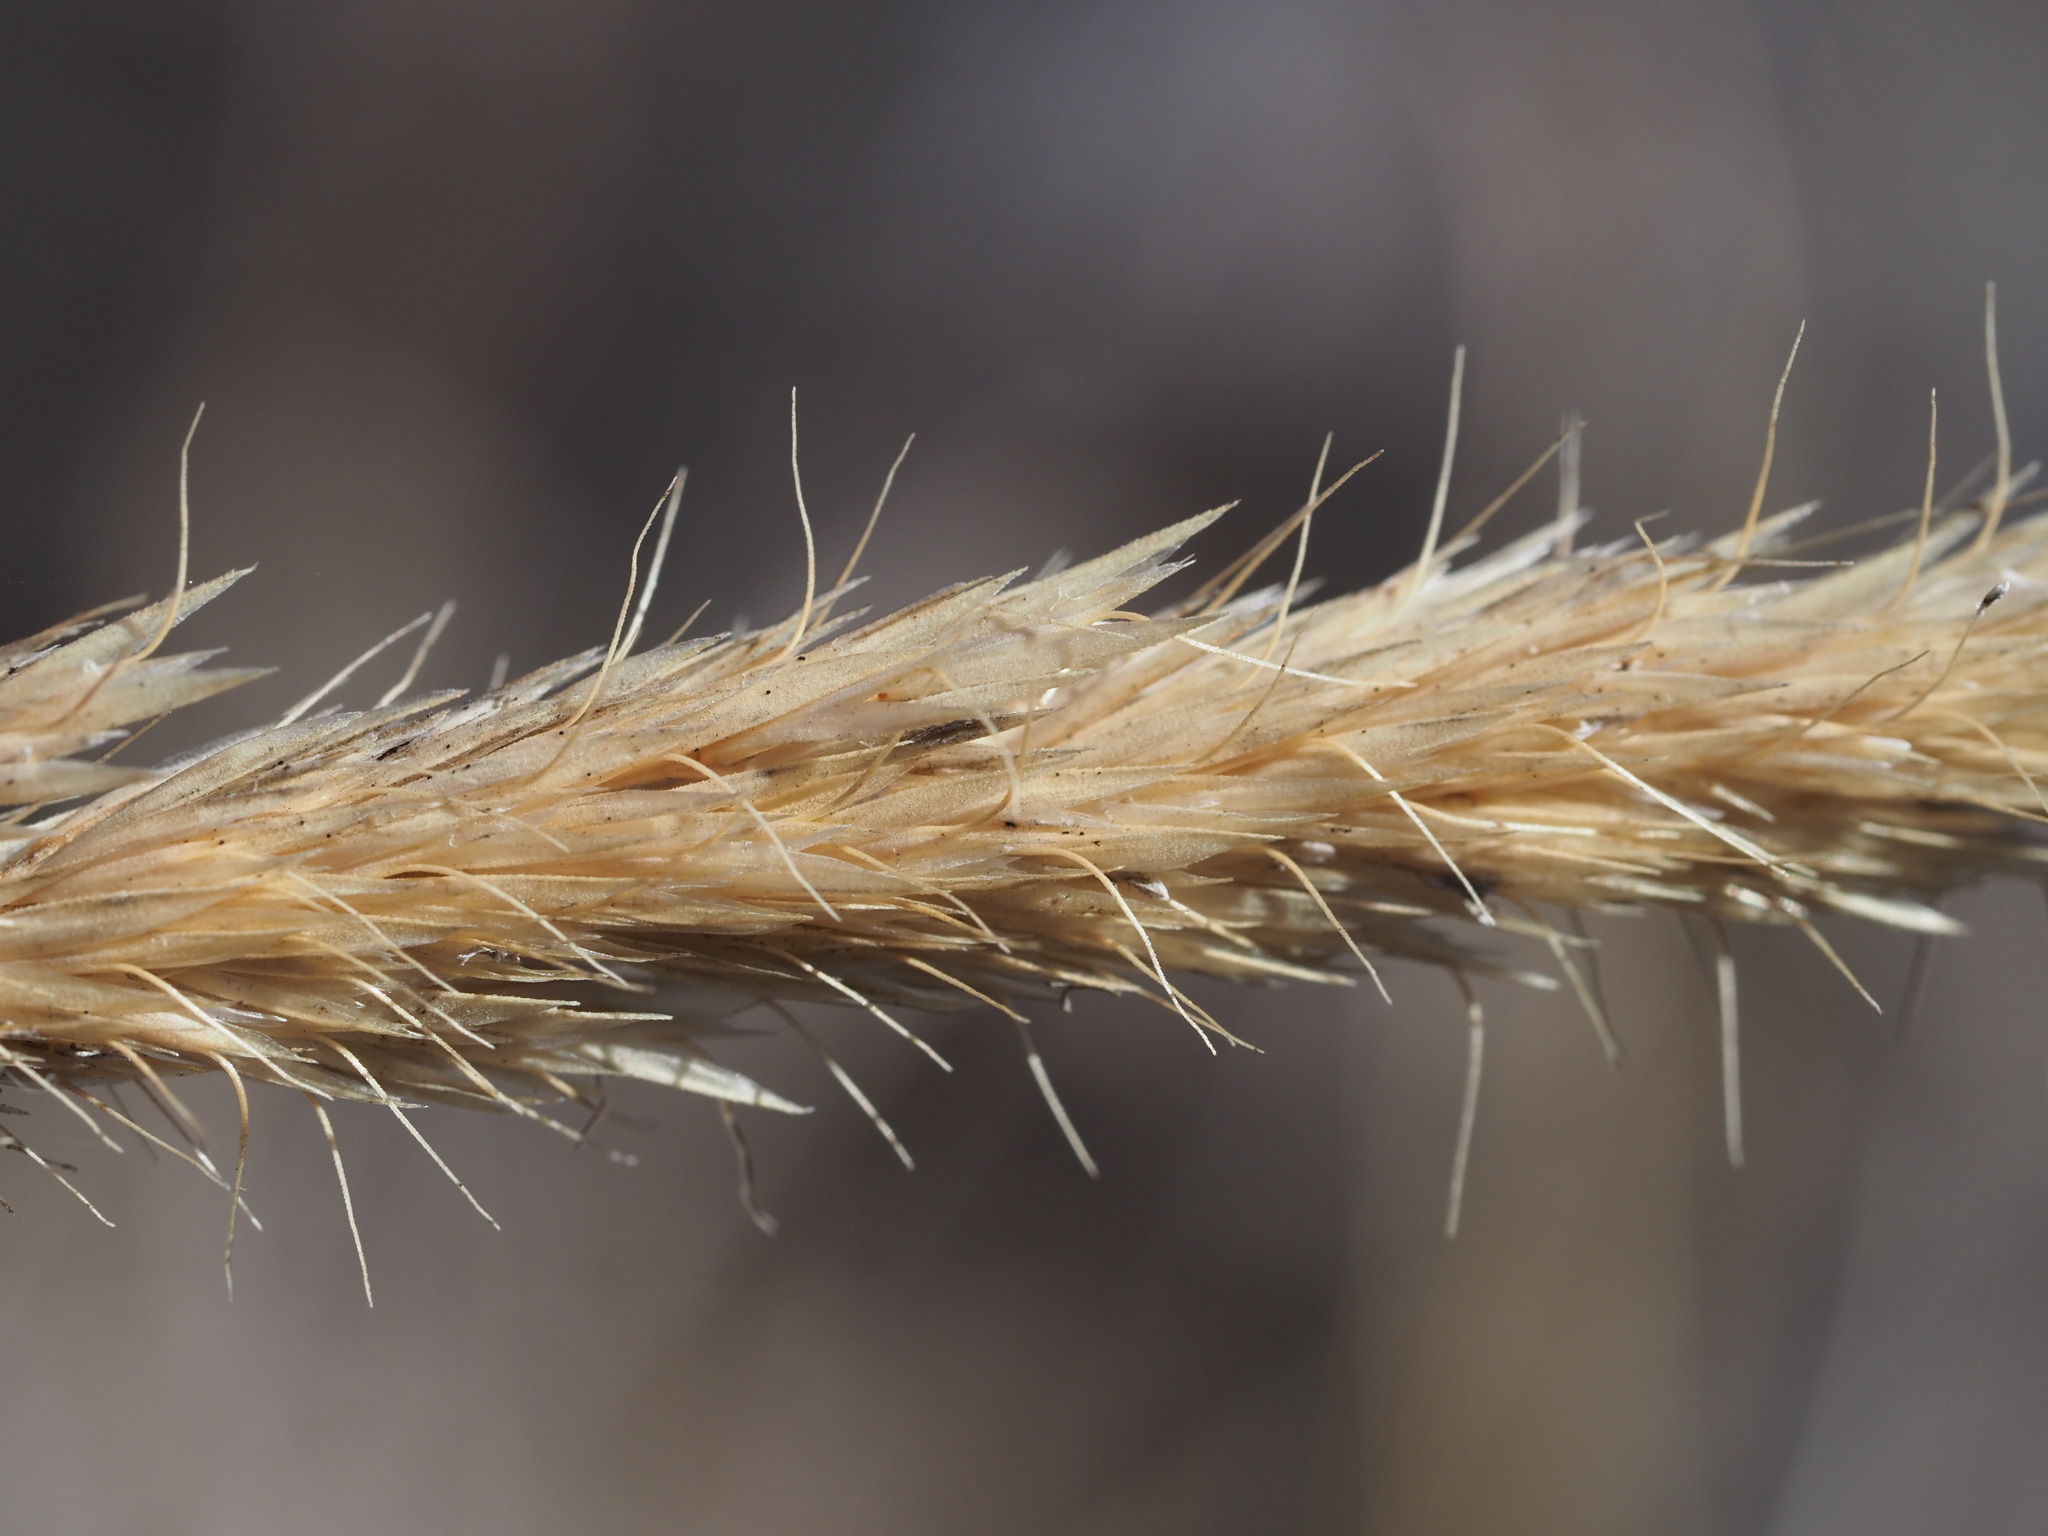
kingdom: Plantae
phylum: Tracheophyta
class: Liliopsida
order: Poales
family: Poaceae
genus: Trisetum
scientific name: Trisetum glomeratum
